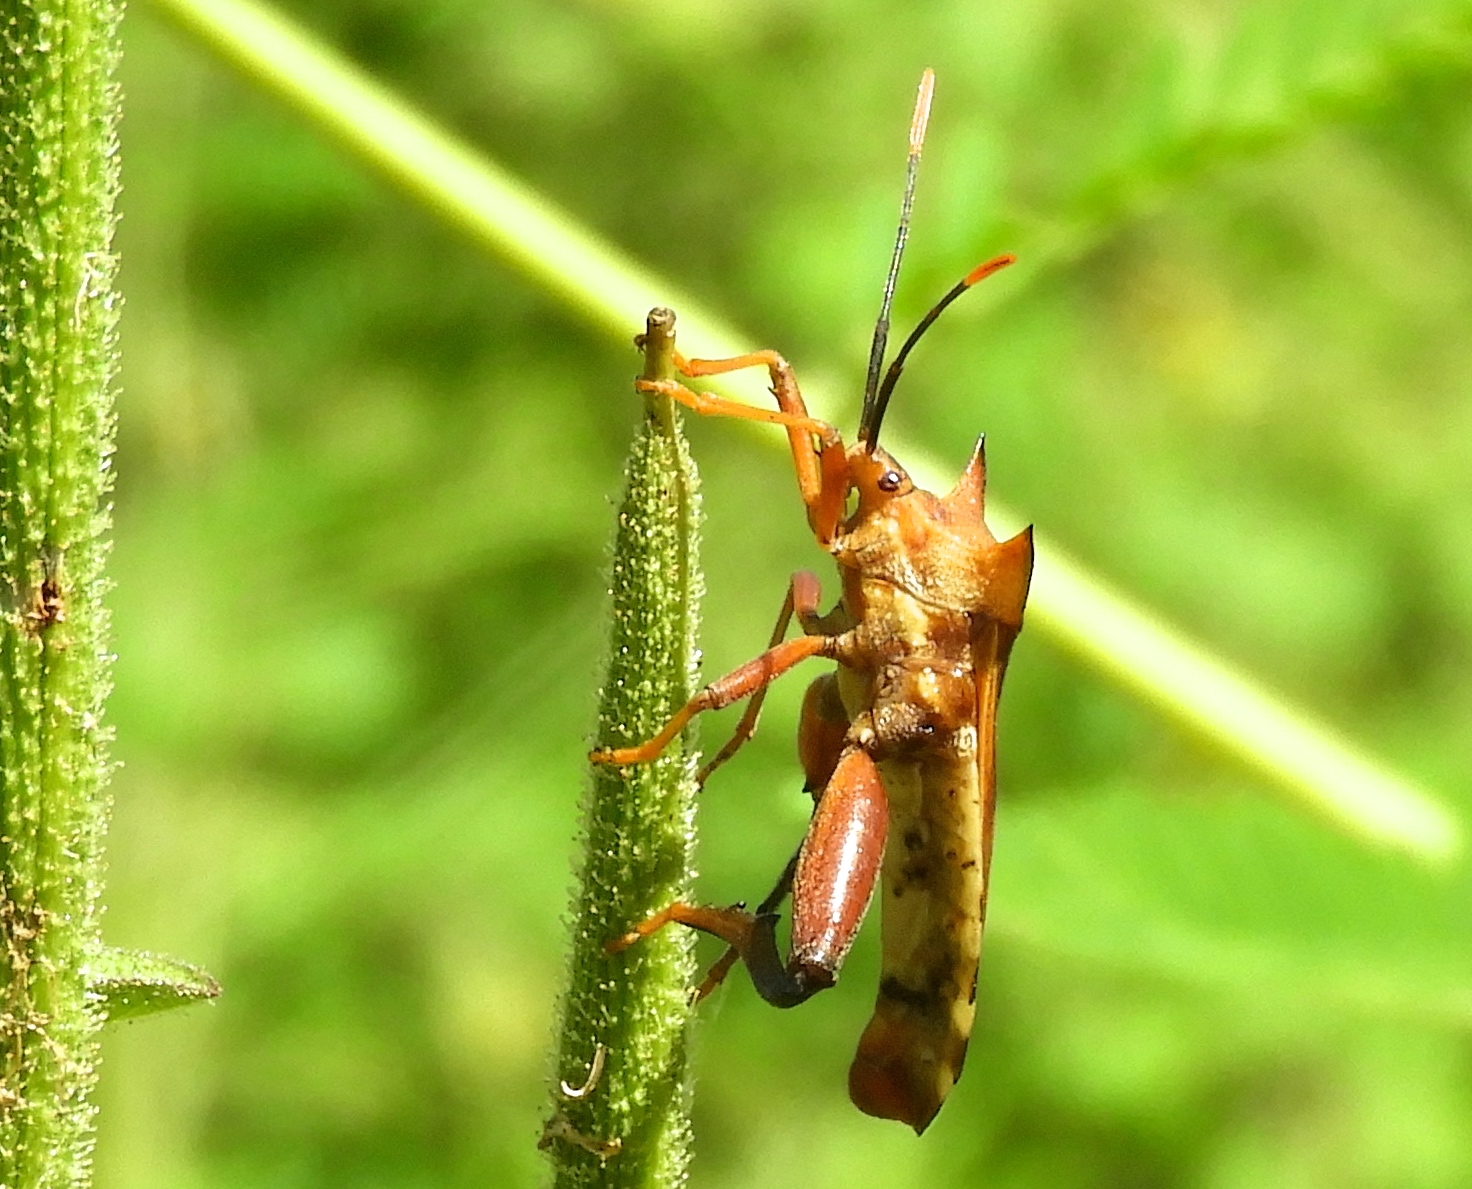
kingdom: Animalia
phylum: Arthropoda
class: Insecta
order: Hemiptera
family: Coreidae
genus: Mozena
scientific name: Mozena
